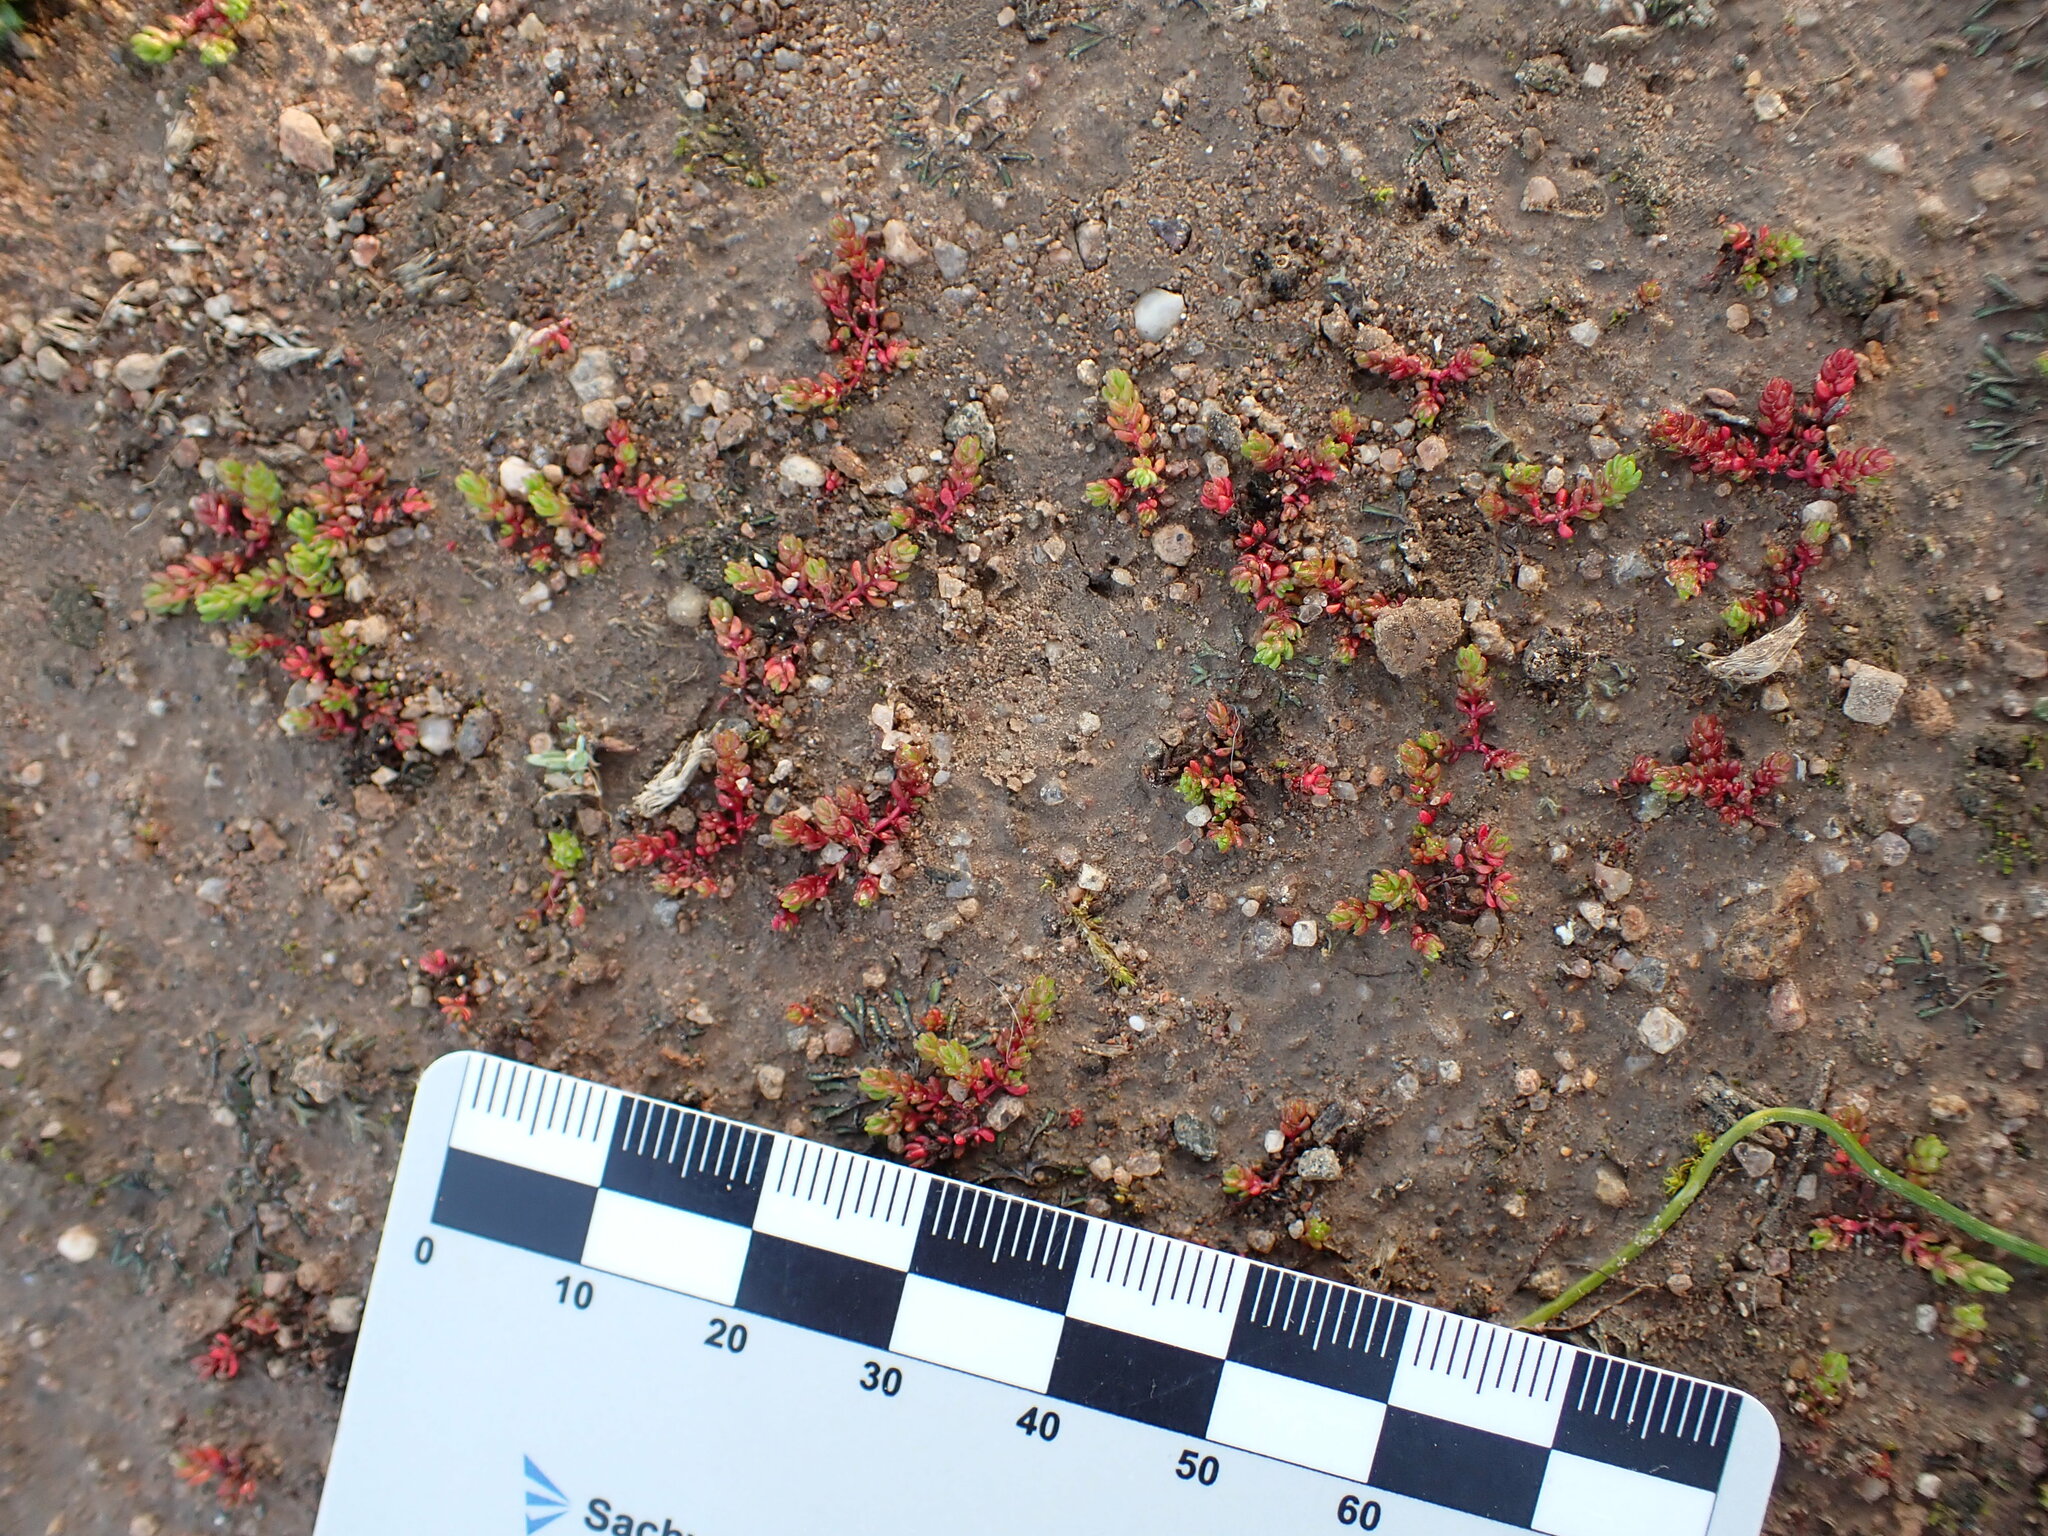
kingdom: Plantae
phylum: Tracheophyta
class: Magnoliopsida
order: Saxifragales
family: Crassulaceae
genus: Crassula
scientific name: Crassula tillaea
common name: Mossy stonecrop
